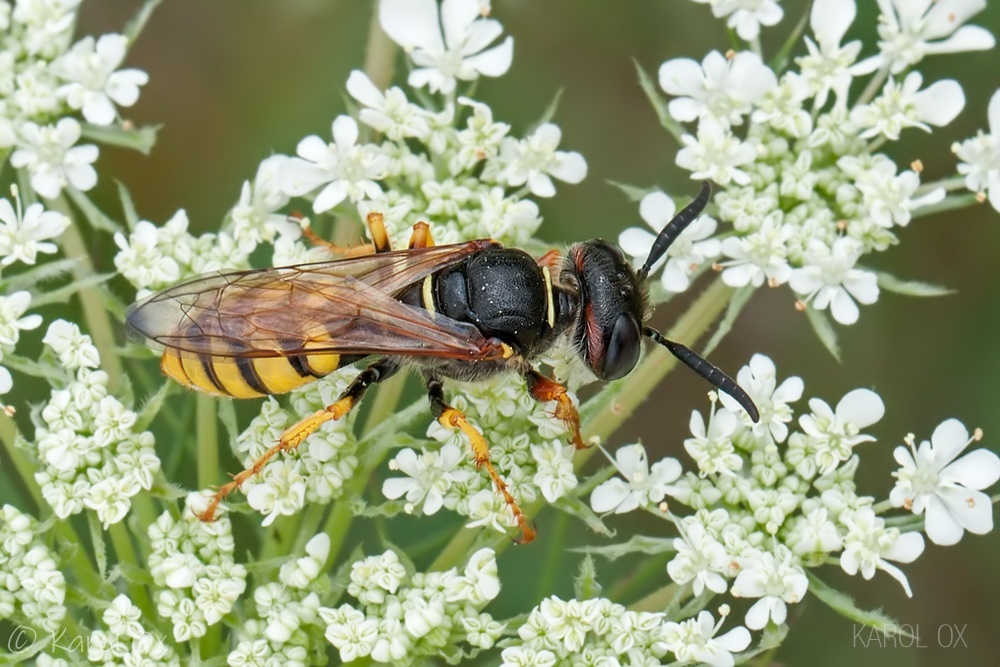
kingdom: Animalia
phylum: Arthropoda
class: Insecta
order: Hymenoptera
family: Crabronidae
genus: Philanthus
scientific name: Philanthus triangulum
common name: Bee wolf
